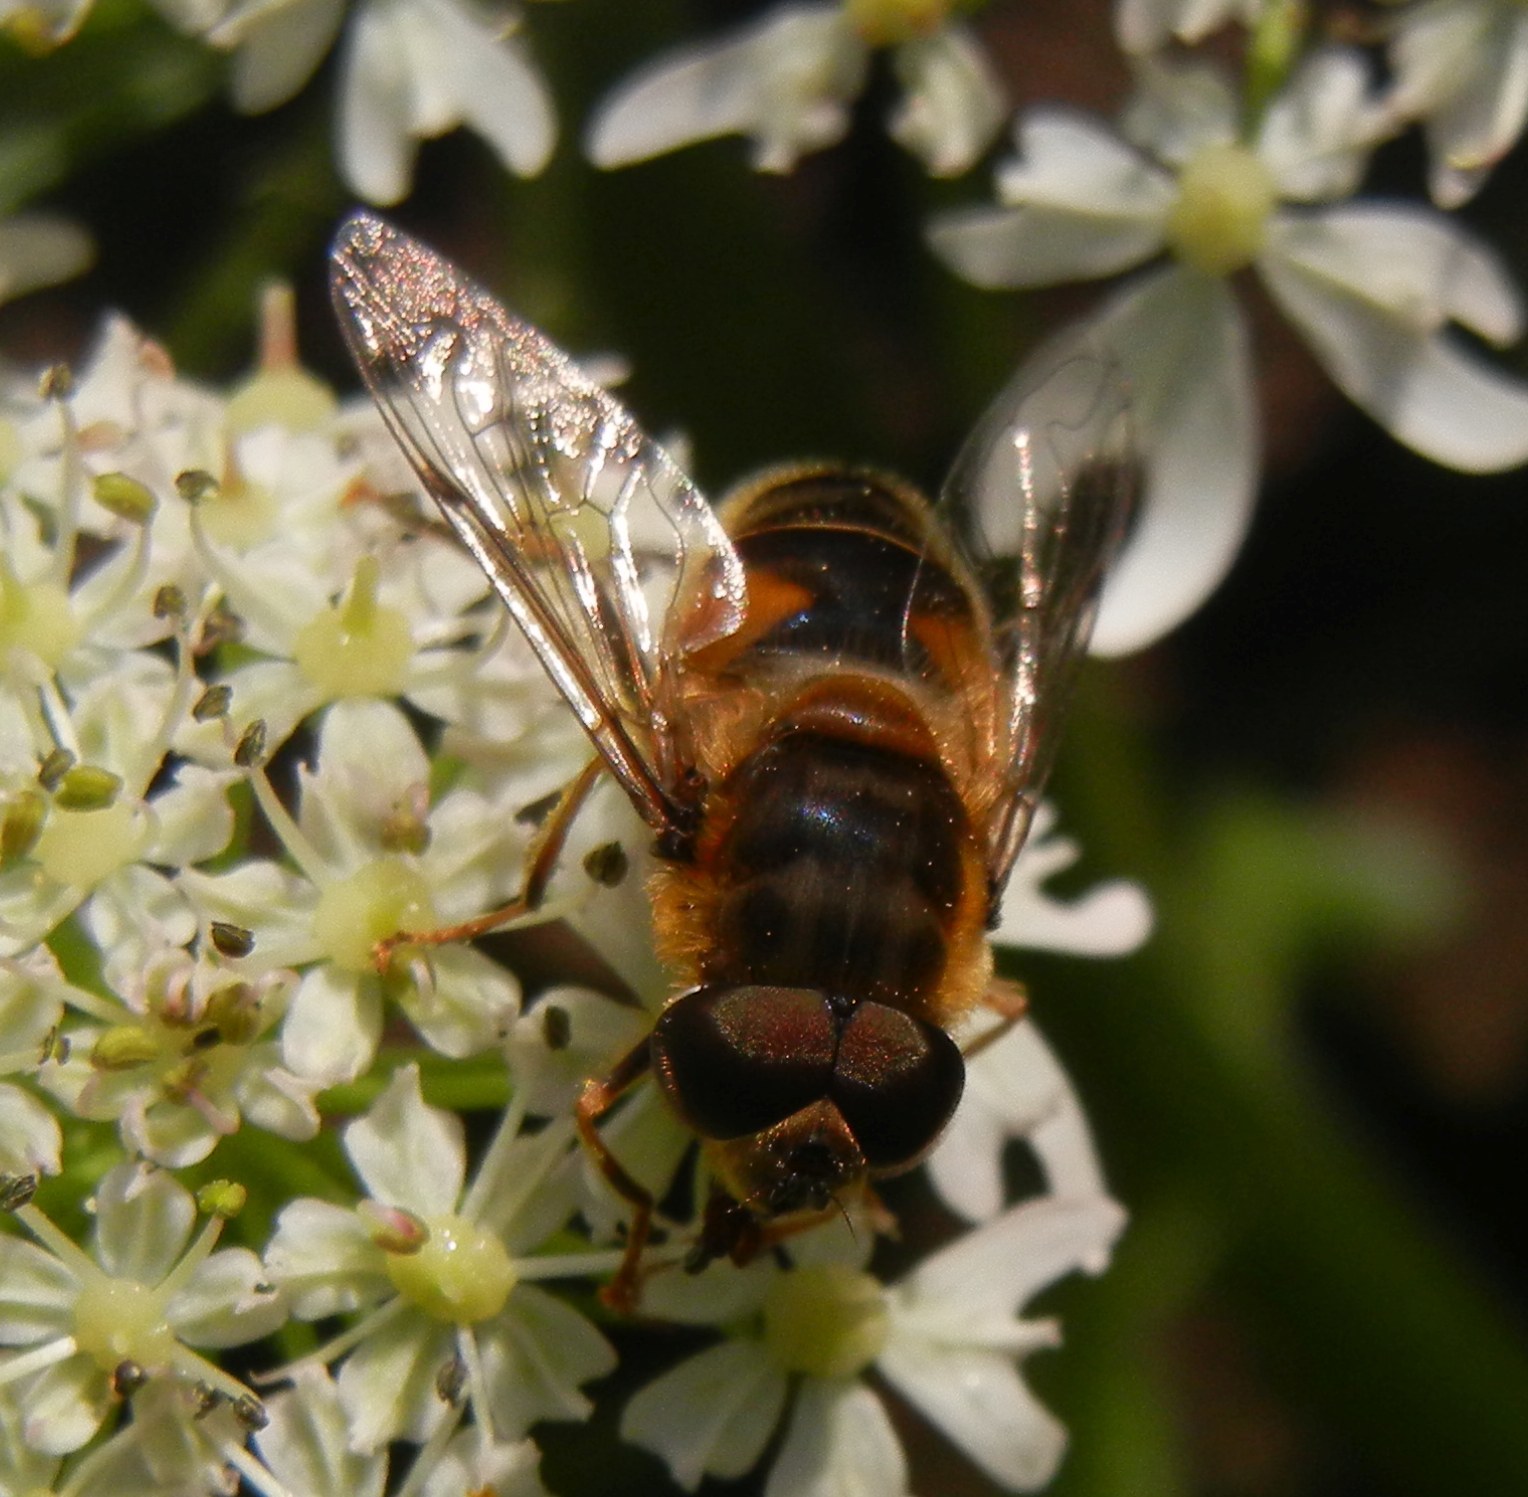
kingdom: Animalia
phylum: Arthropoda
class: Insecta
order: Diptera
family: Syrphidae
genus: Eristalis
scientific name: Eristalis pertinax
